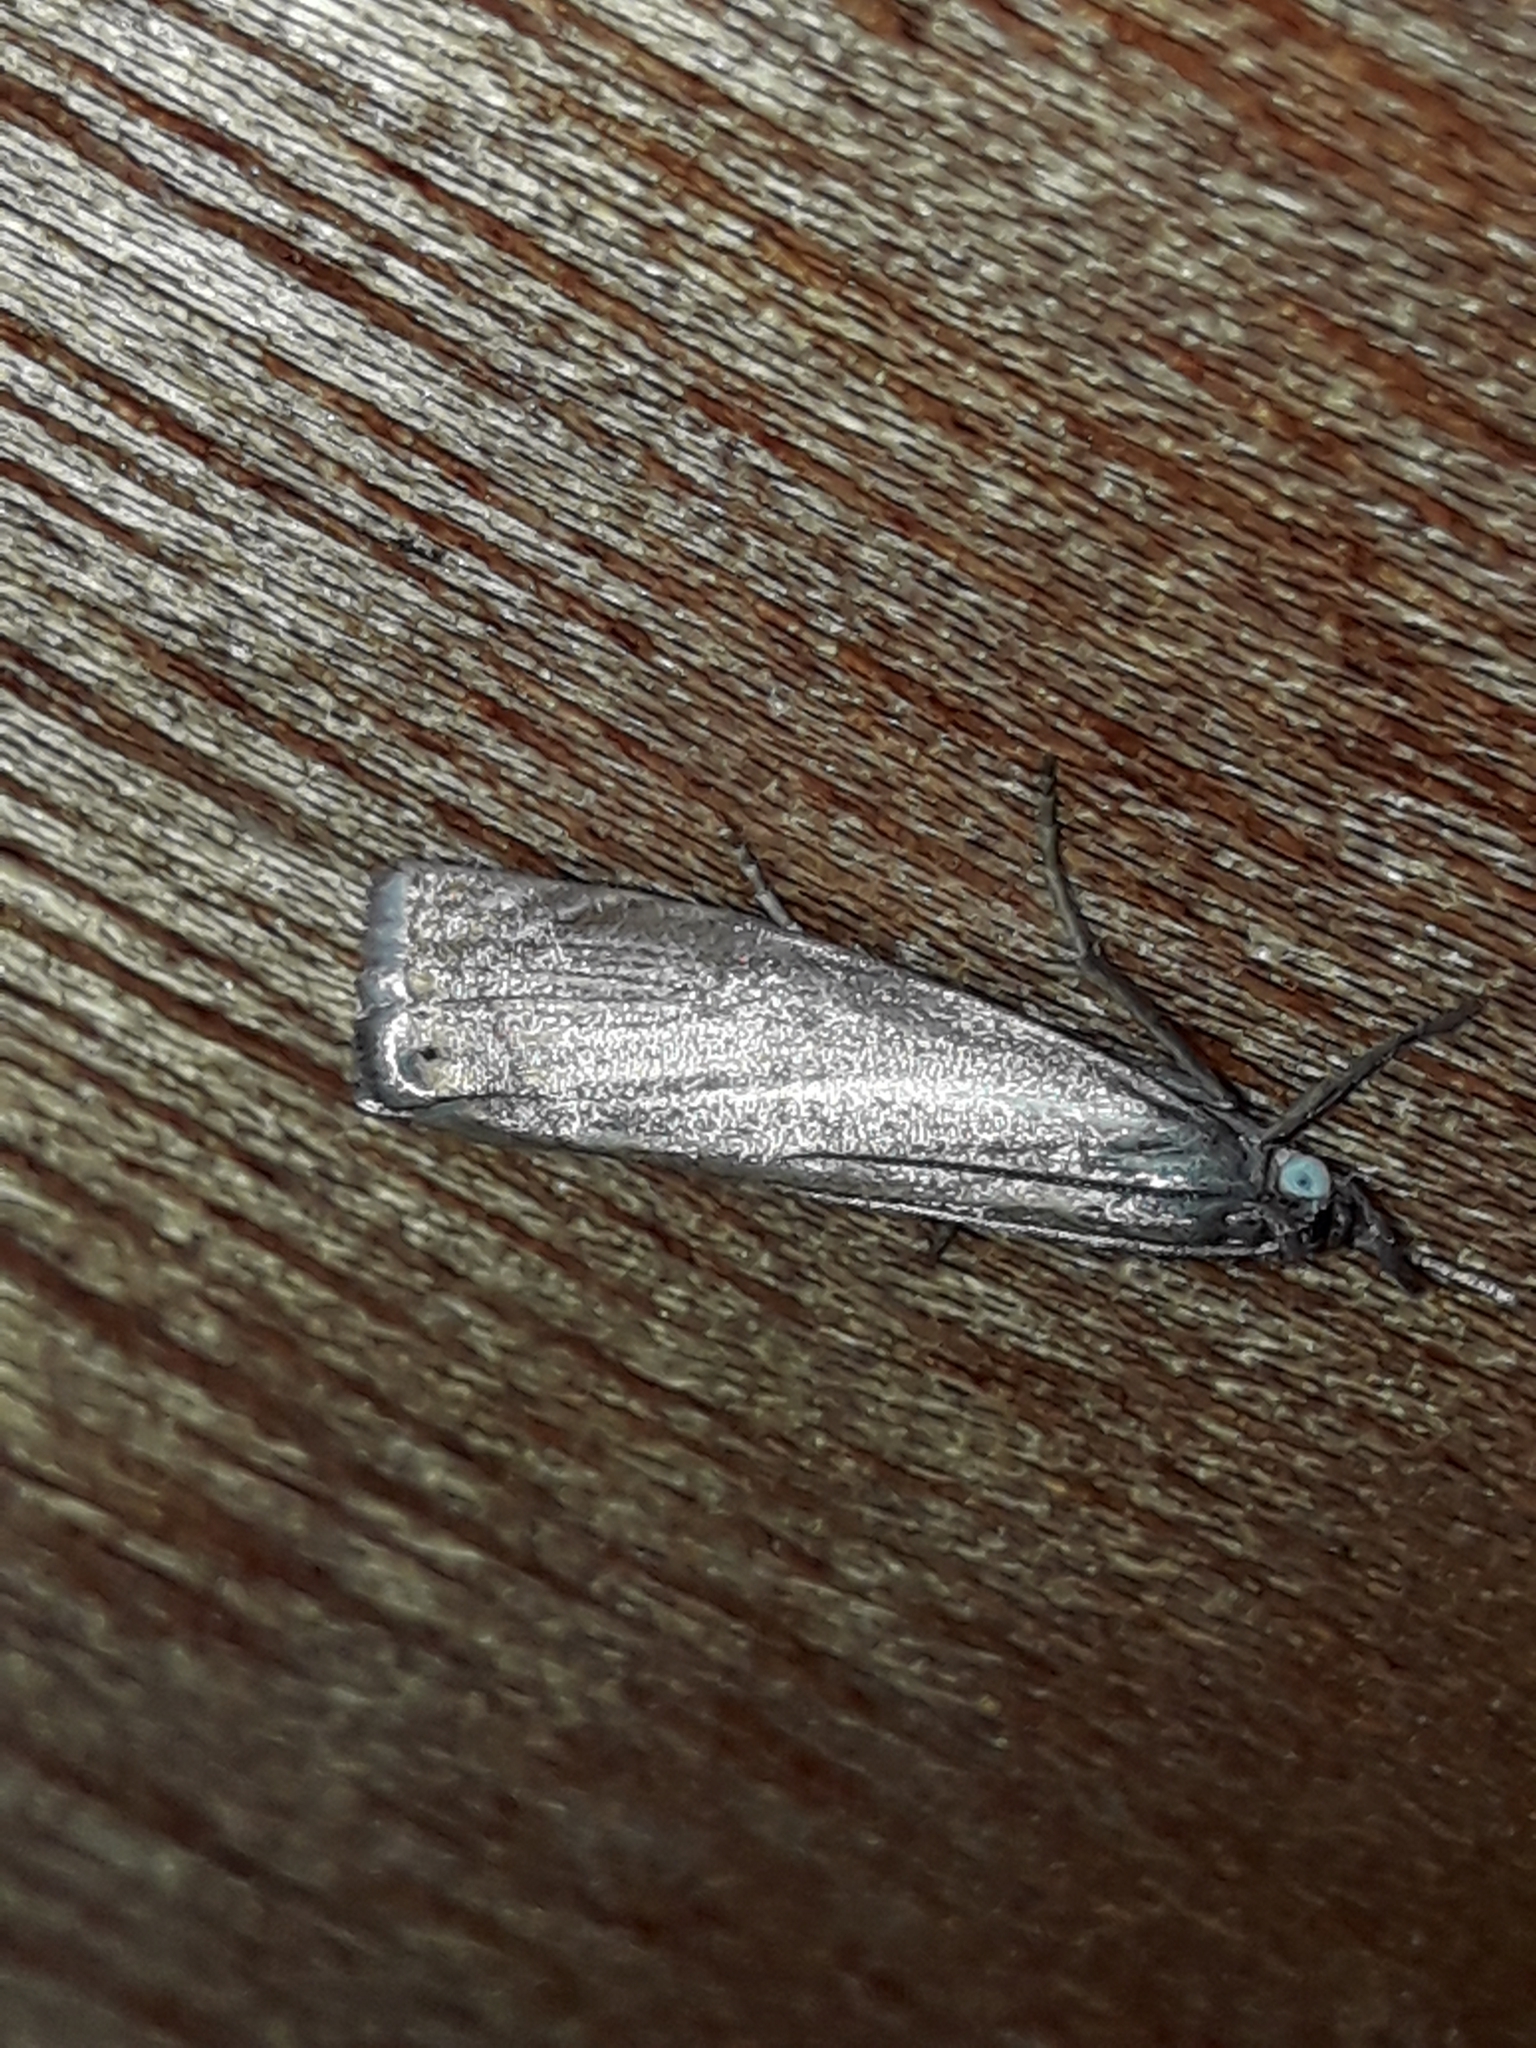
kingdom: Animalia
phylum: Arthropoda
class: Insecta
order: Lepidoptera
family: Crambidae
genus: Chrysoteuchia
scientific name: Chrysoteuchia culmella
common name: Garden grass-veneer
